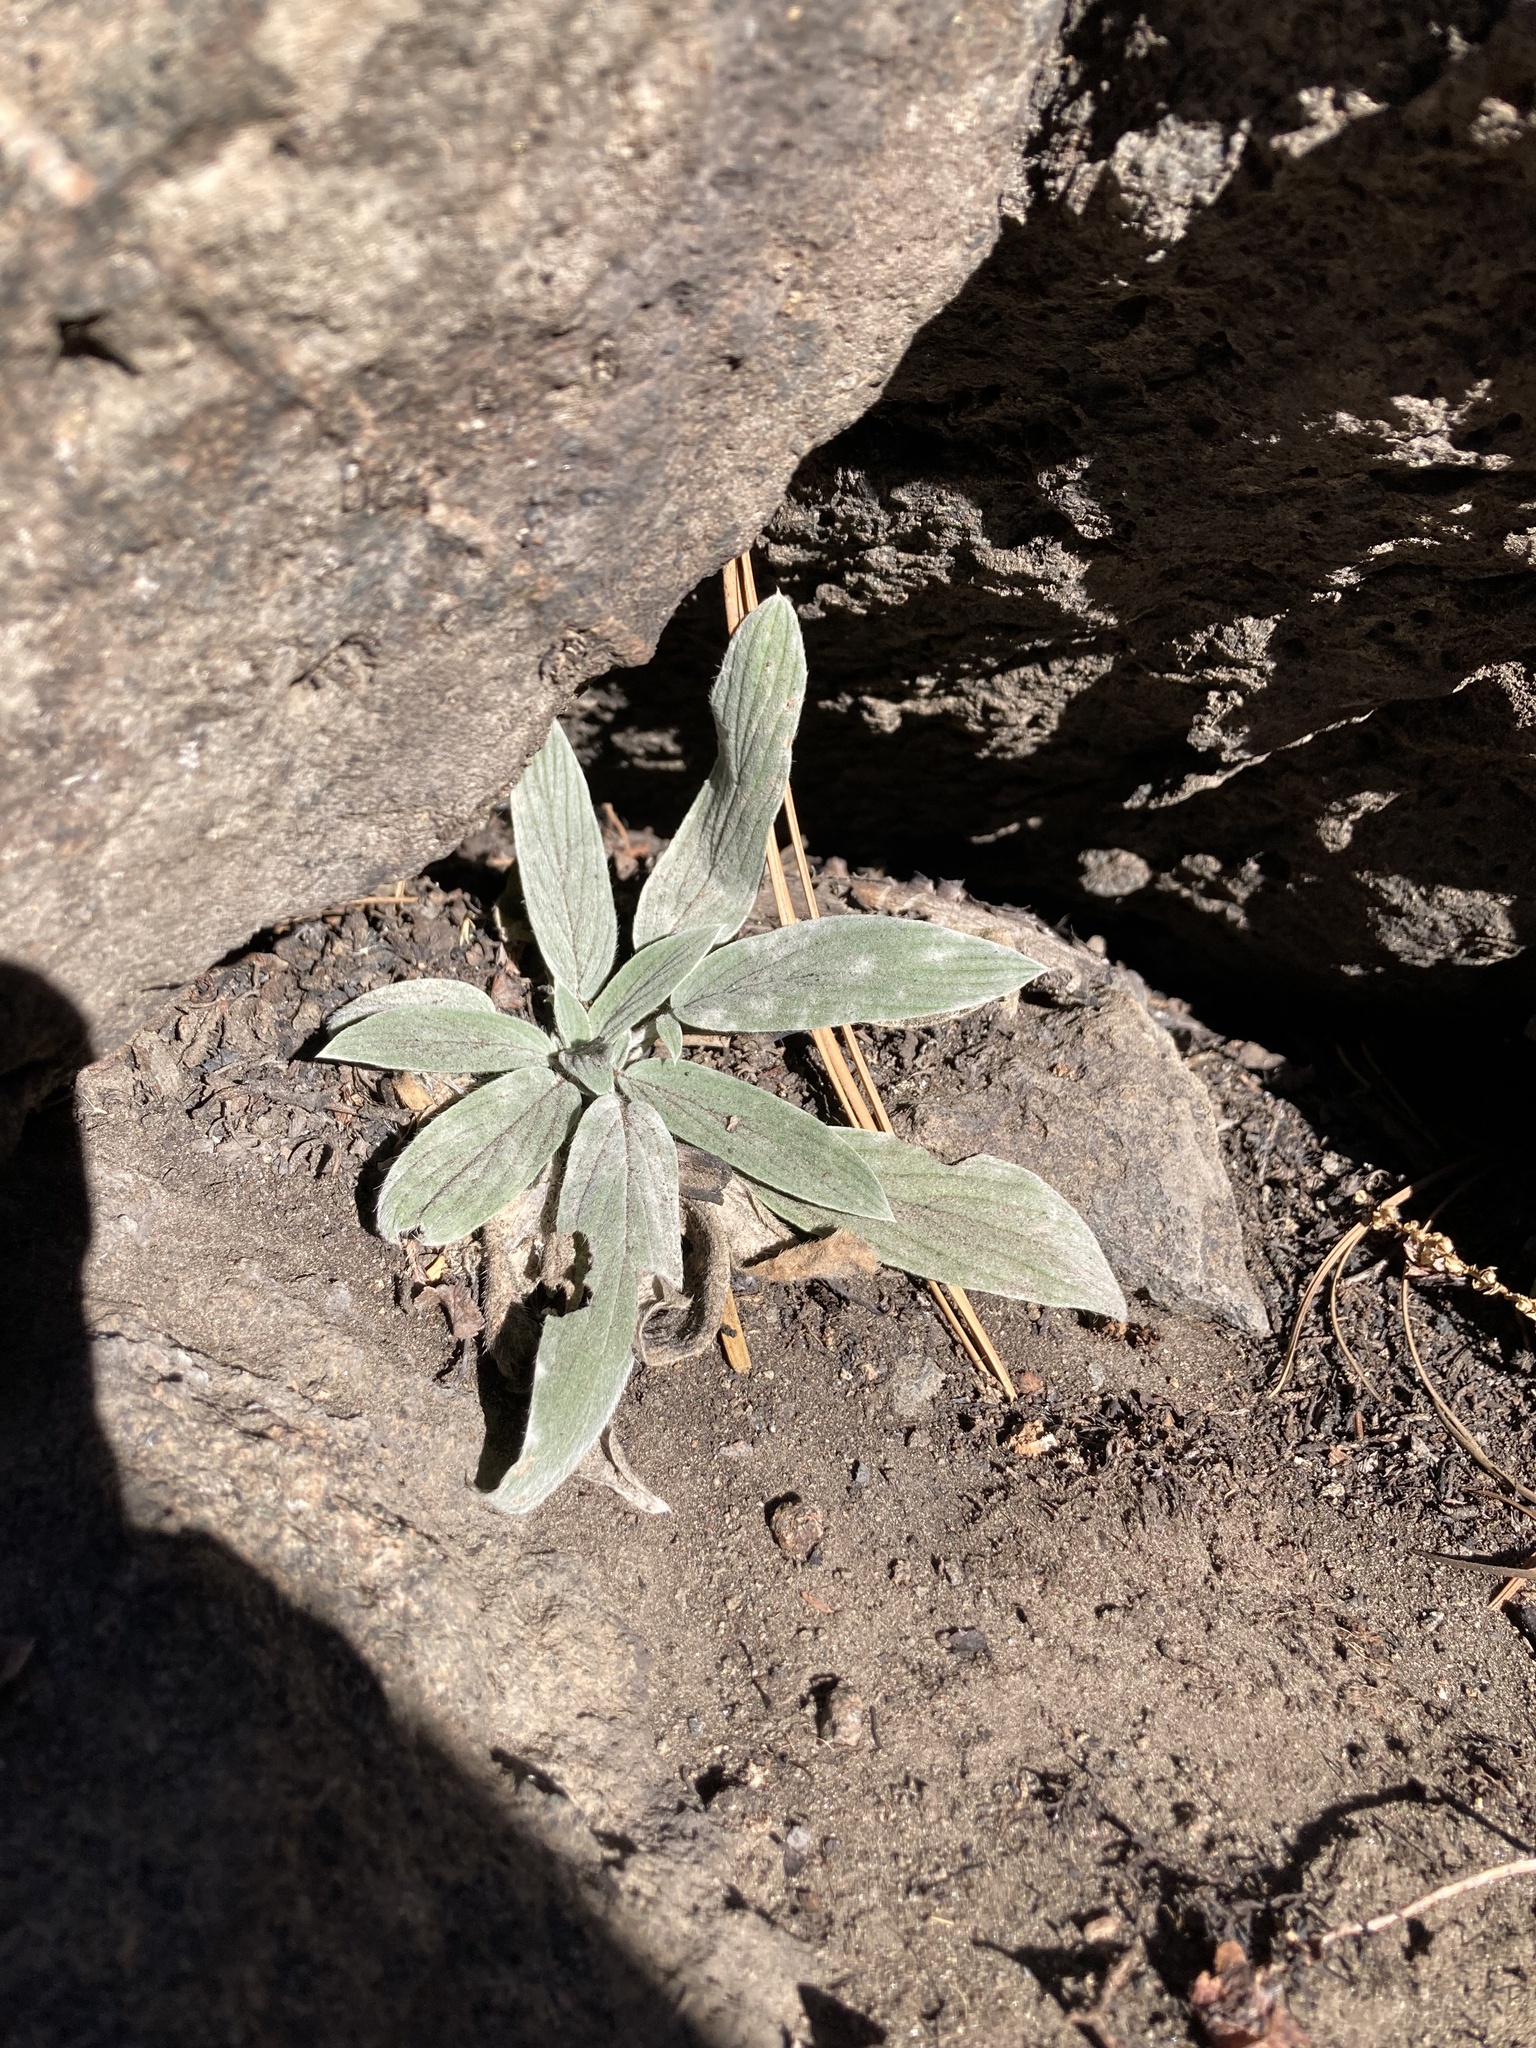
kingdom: Plantae
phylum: Tracheophyta
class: Magnoliopsida
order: Boraginales
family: Hydrophyllaceae
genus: Phacelia
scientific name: Phacelia hastata
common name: Silver-leaved phacelia
